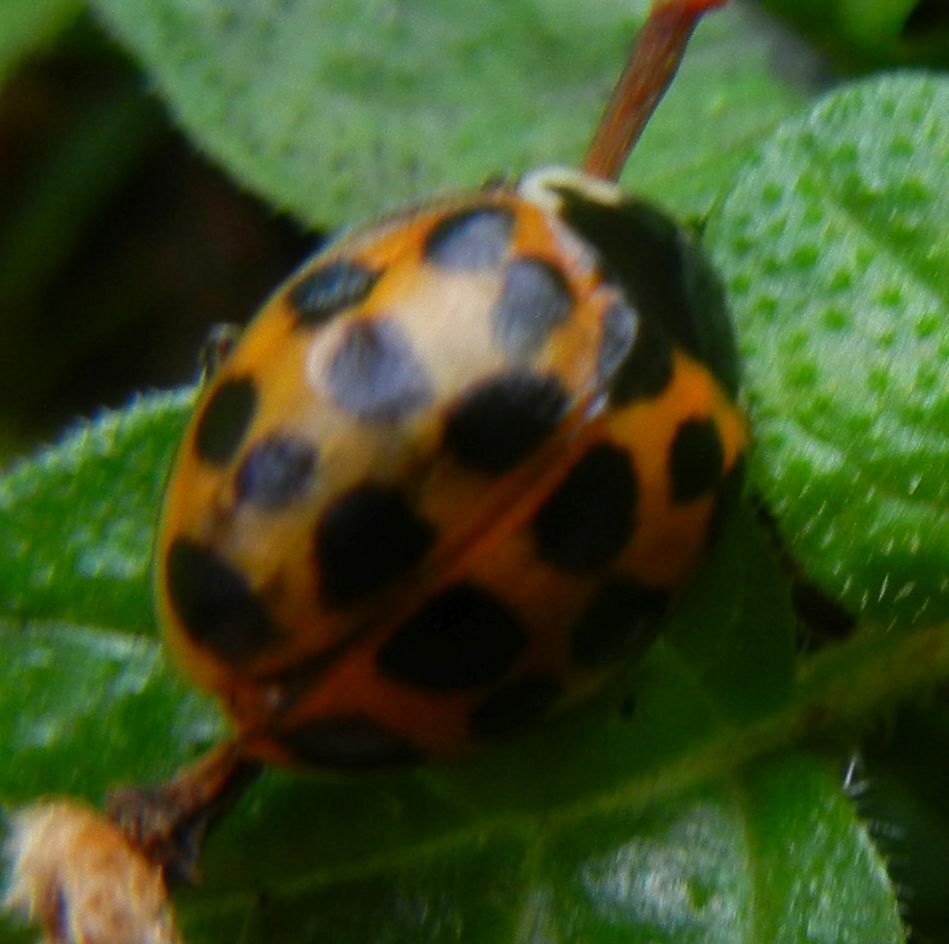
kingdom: Animalia
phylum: Arthropoda
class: Insecta
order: Coleoptera
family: Coccinellidae
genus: Harmonia
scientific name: Harmonia axyridis
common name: Harlequin ladybird
